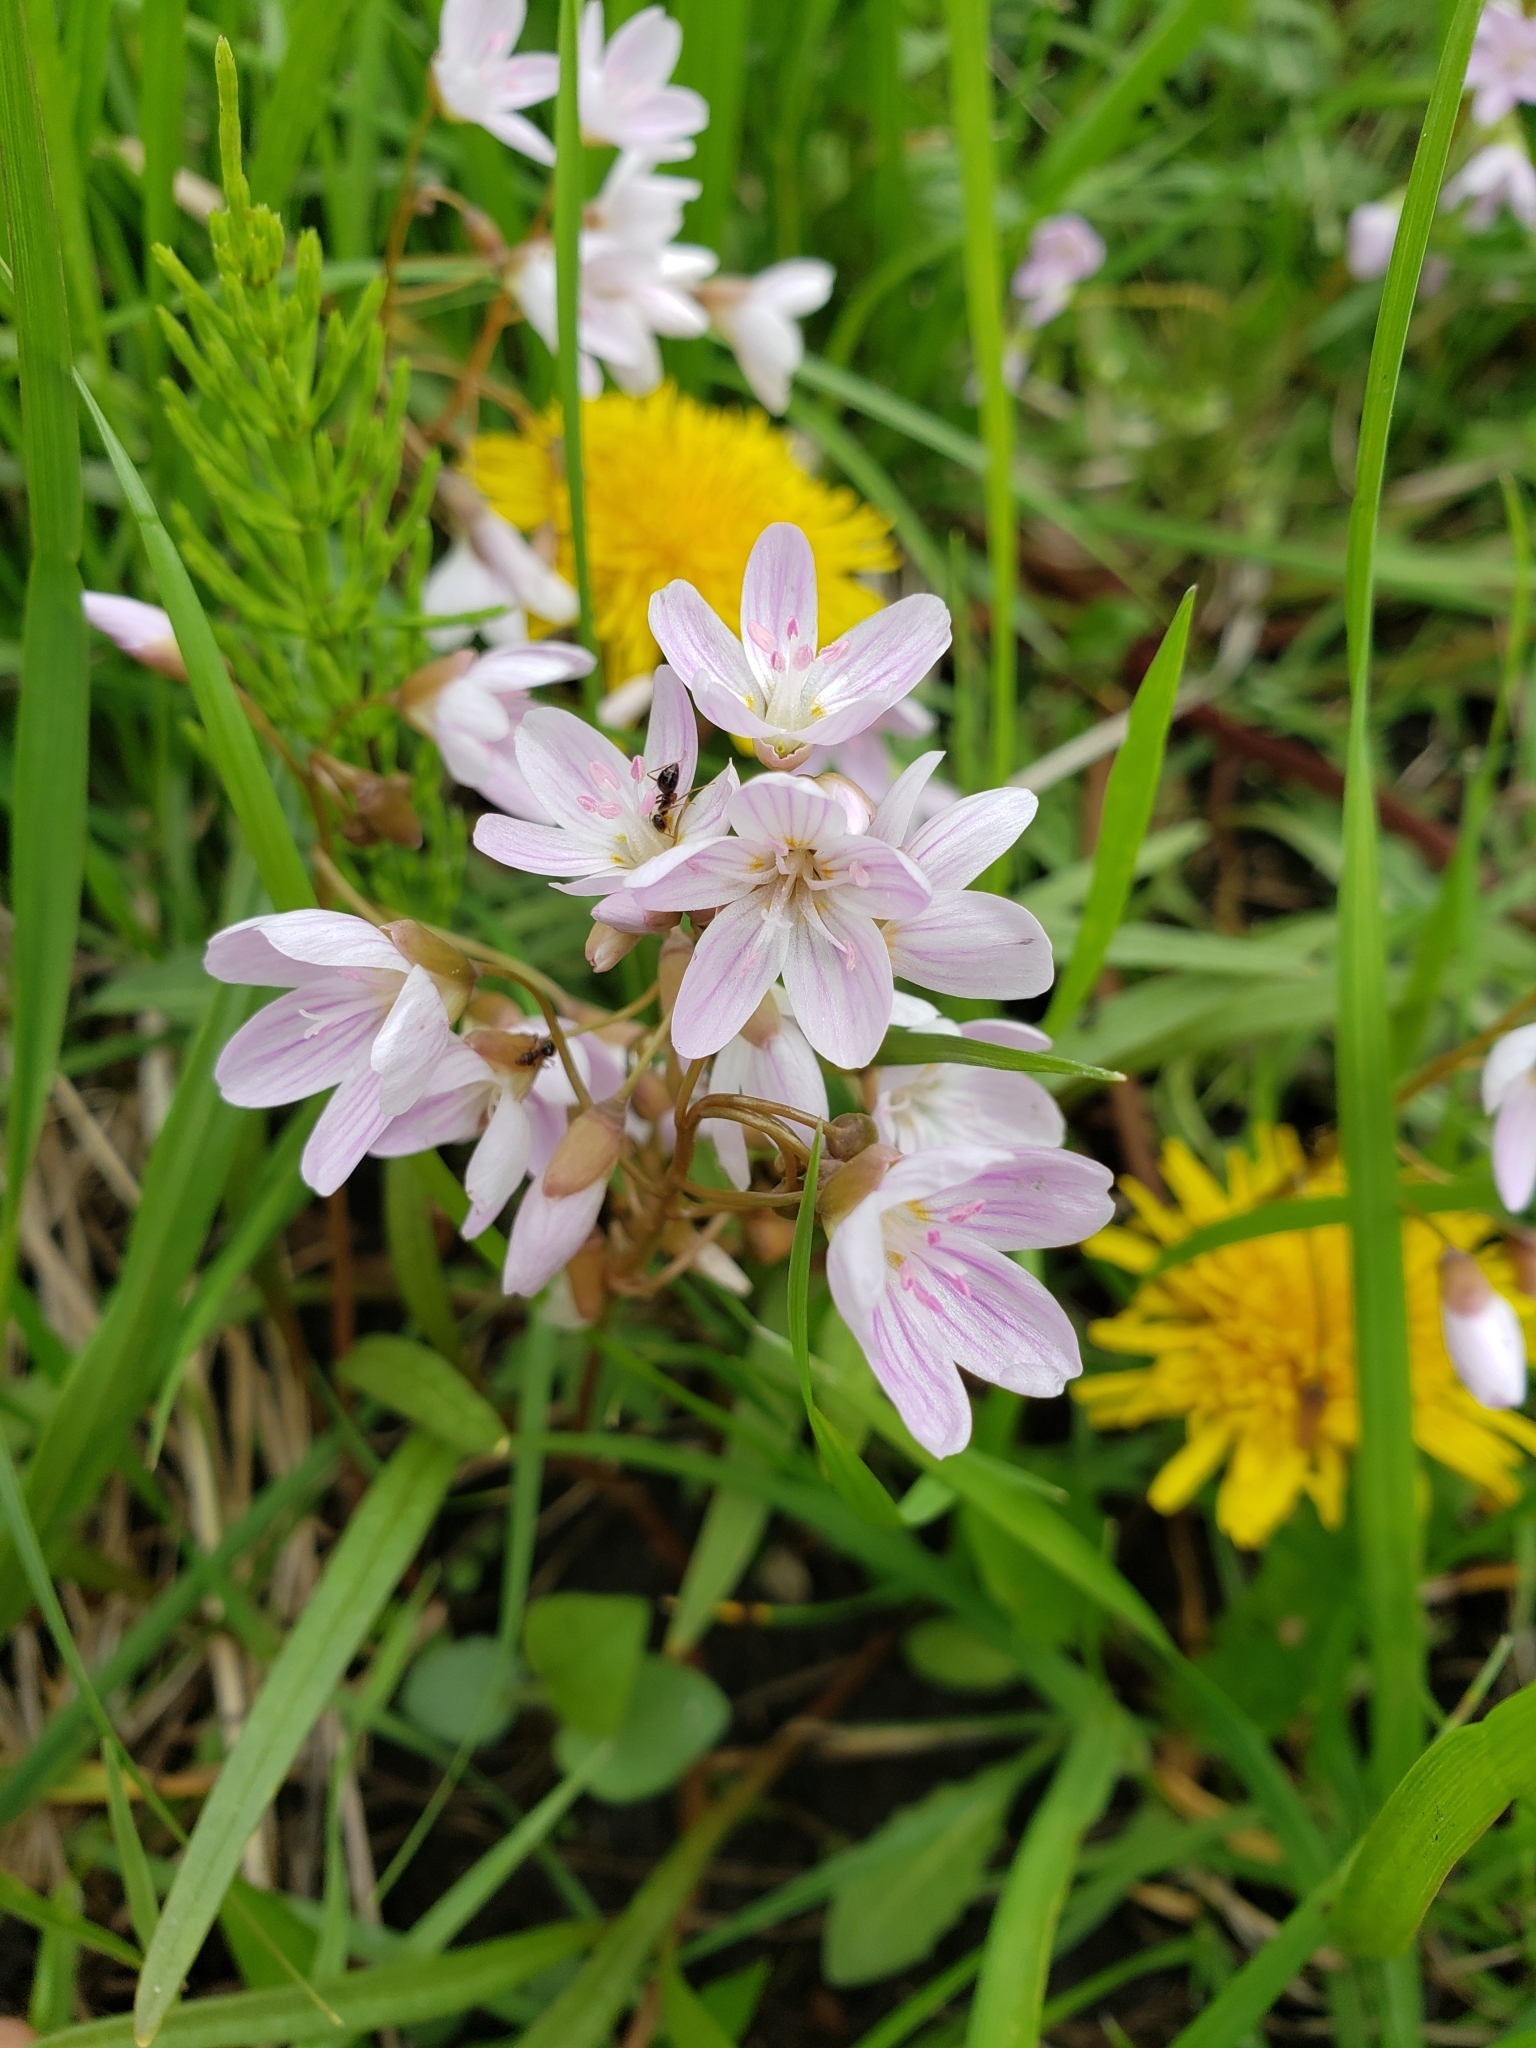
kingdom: Plantae
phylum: Tracheophyta
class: Magnoliopsida
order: Caryophyllales
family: Montiaceae
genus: Claytonia
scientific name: Claytonia virginica
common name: Virginia springbeauty
